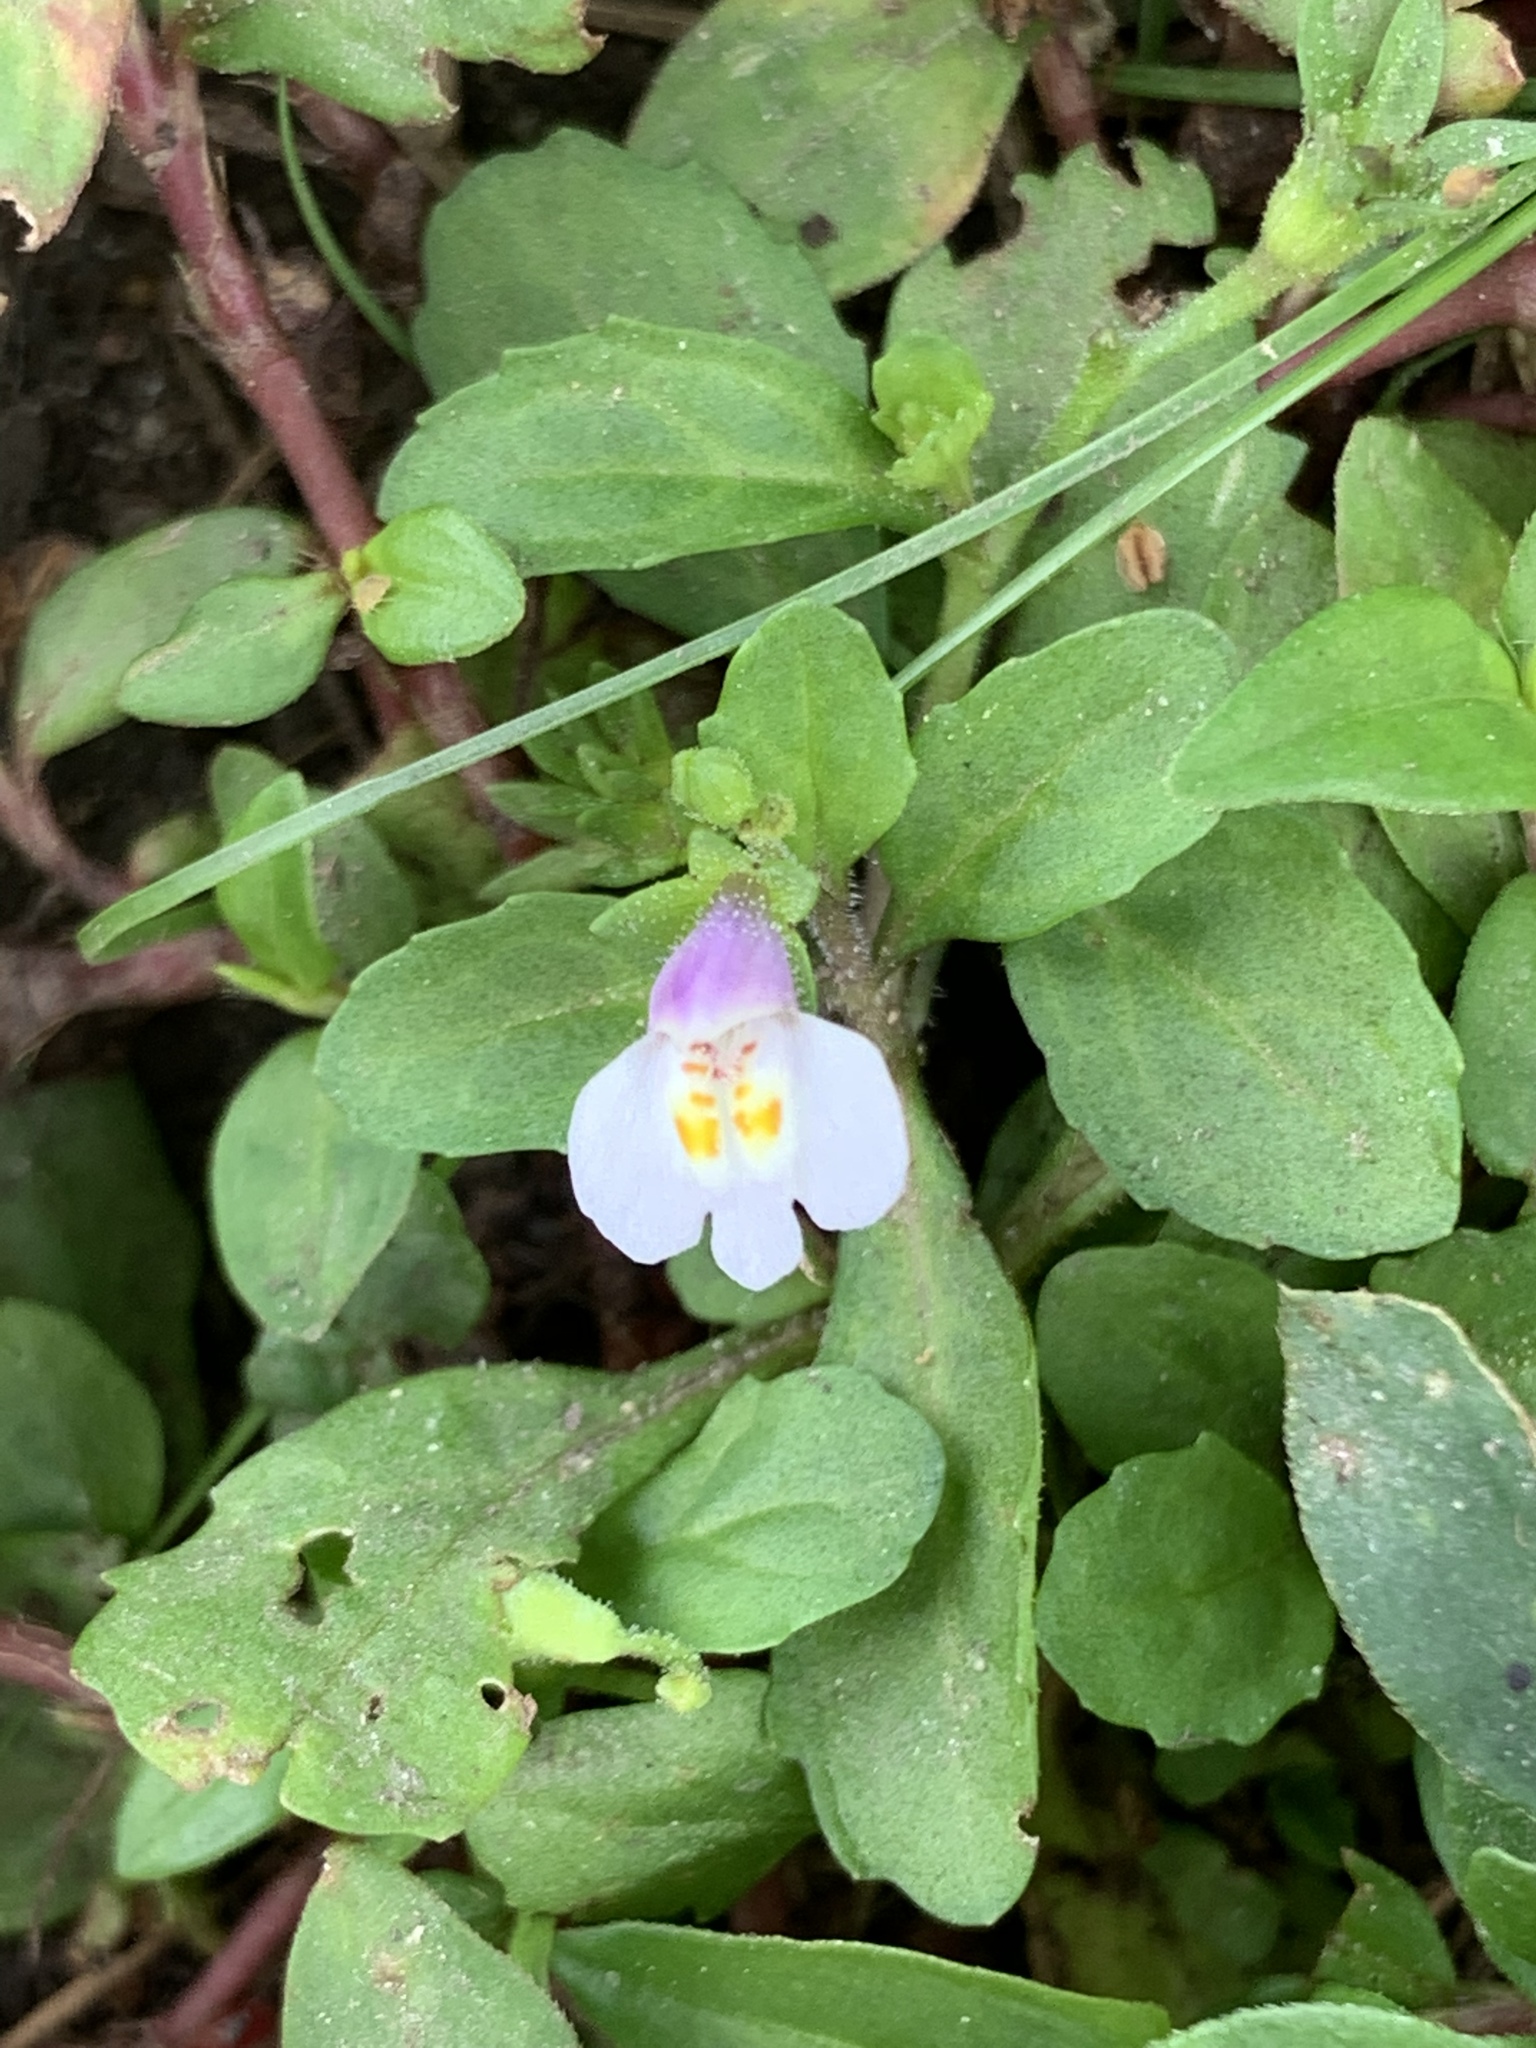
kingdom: Plantae
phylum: Tracheophyta
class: Magnoliopsida
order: Lamiales
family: Mazaceae
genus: Mazus
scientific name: Mazus pumilus
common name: Japanese mazus
